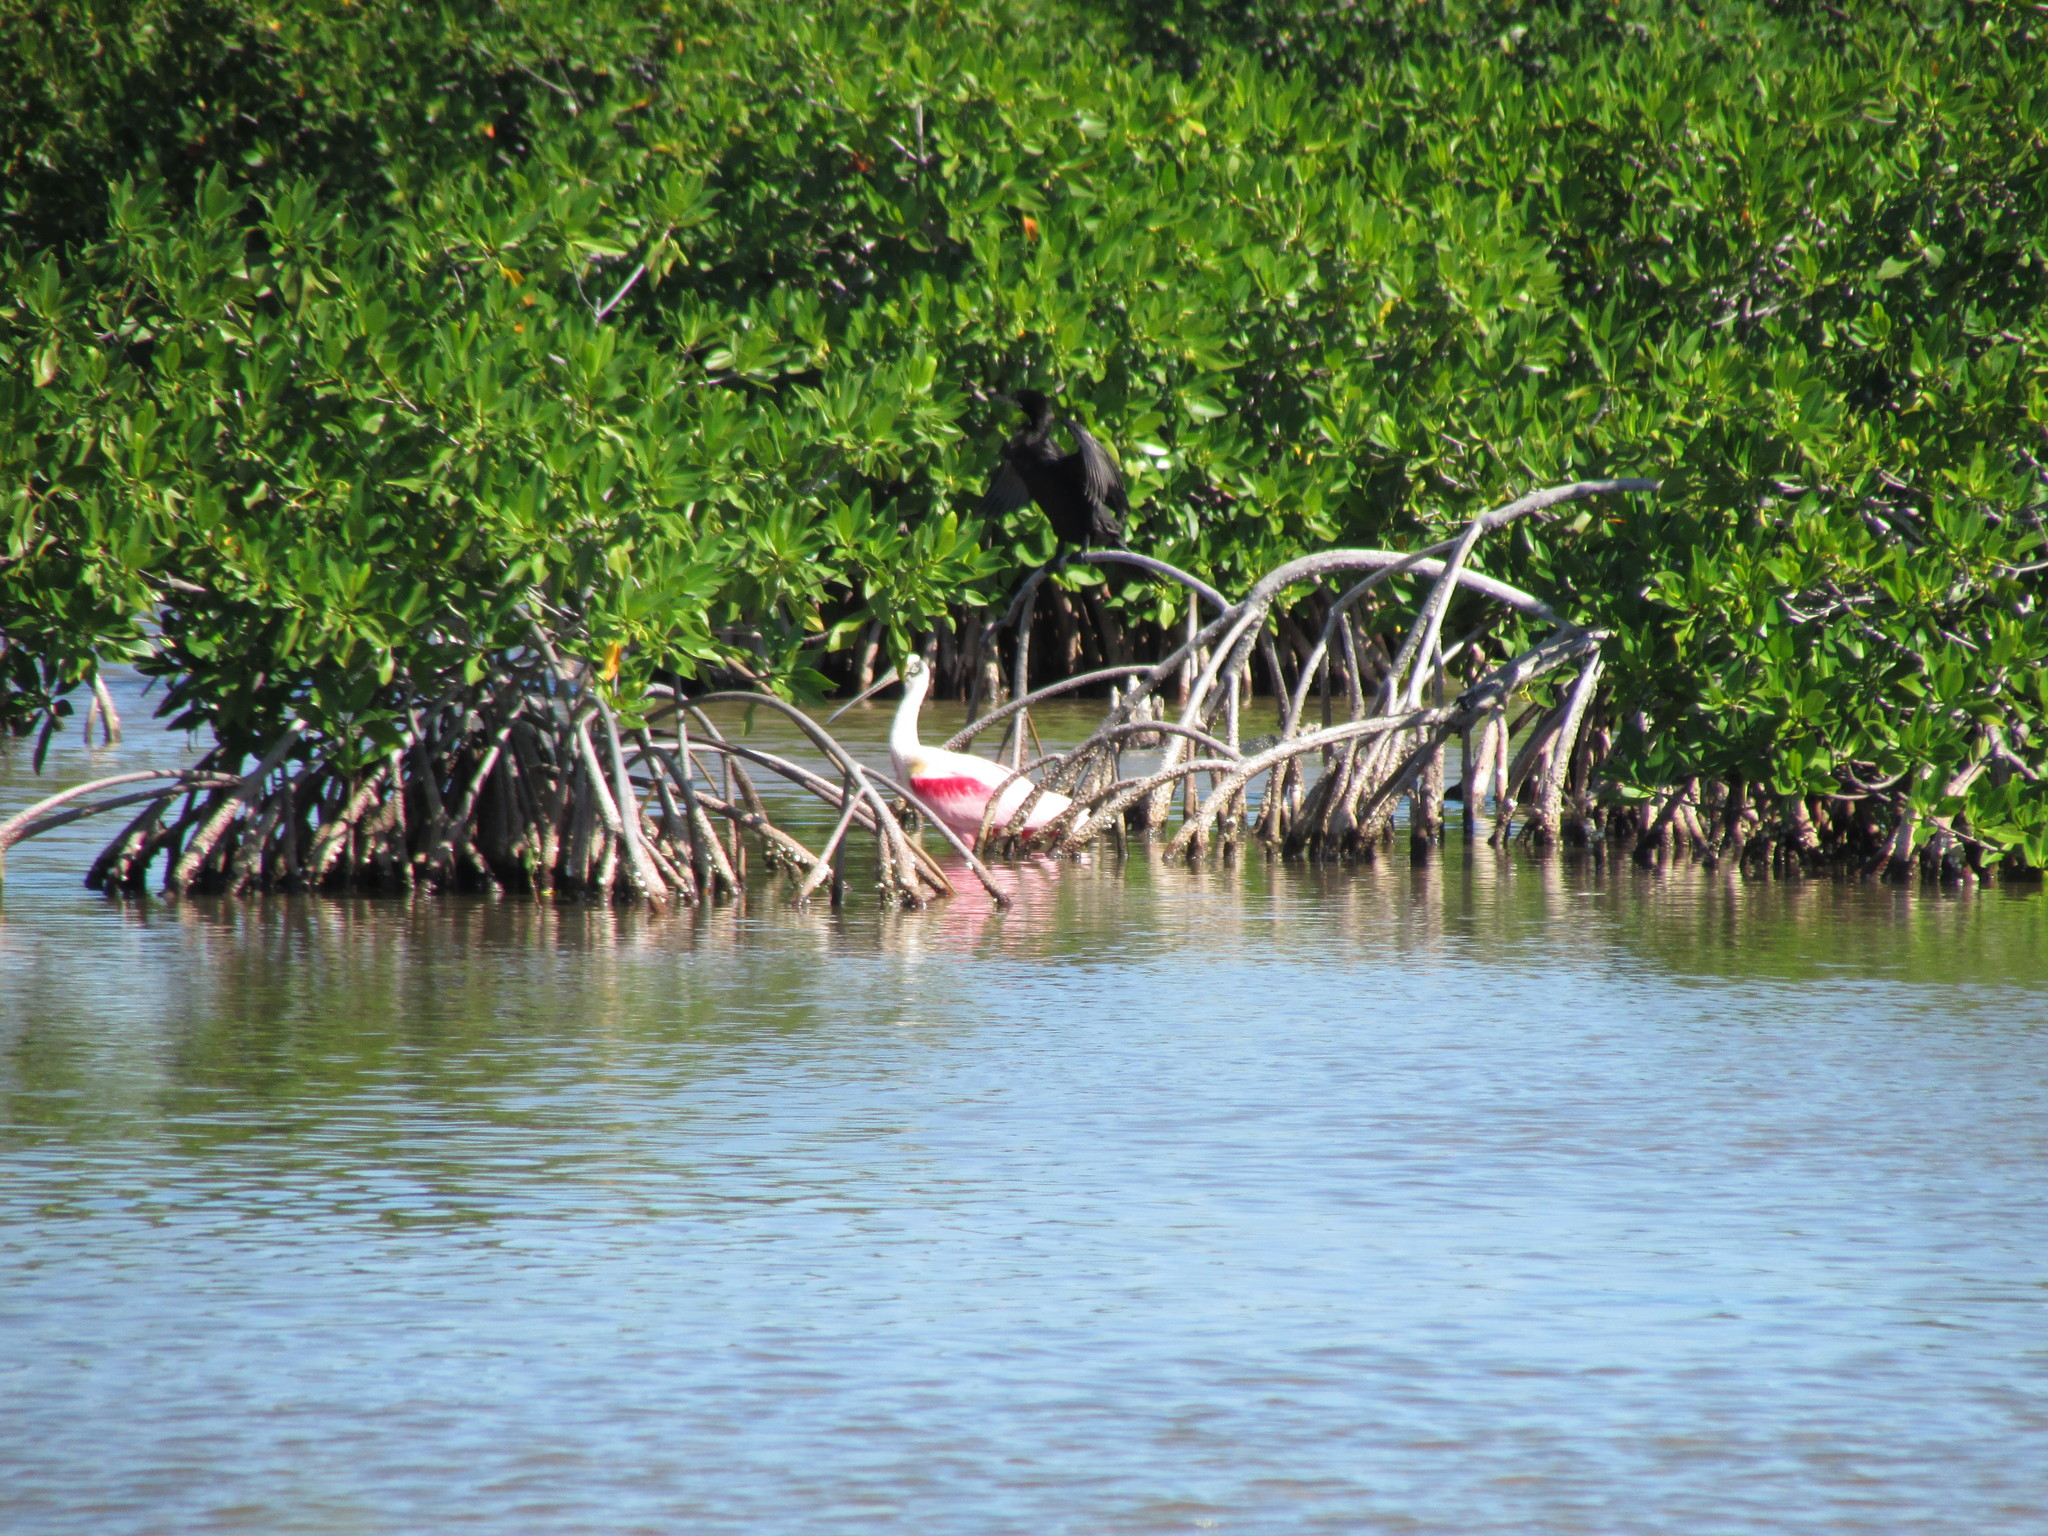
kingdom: Animalia
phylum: Chordata
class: Aves
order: Pelecaniformes
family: Threskiornithidae
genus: Platalea
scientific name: Platalea ajaja
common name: Roseate spoonbill
